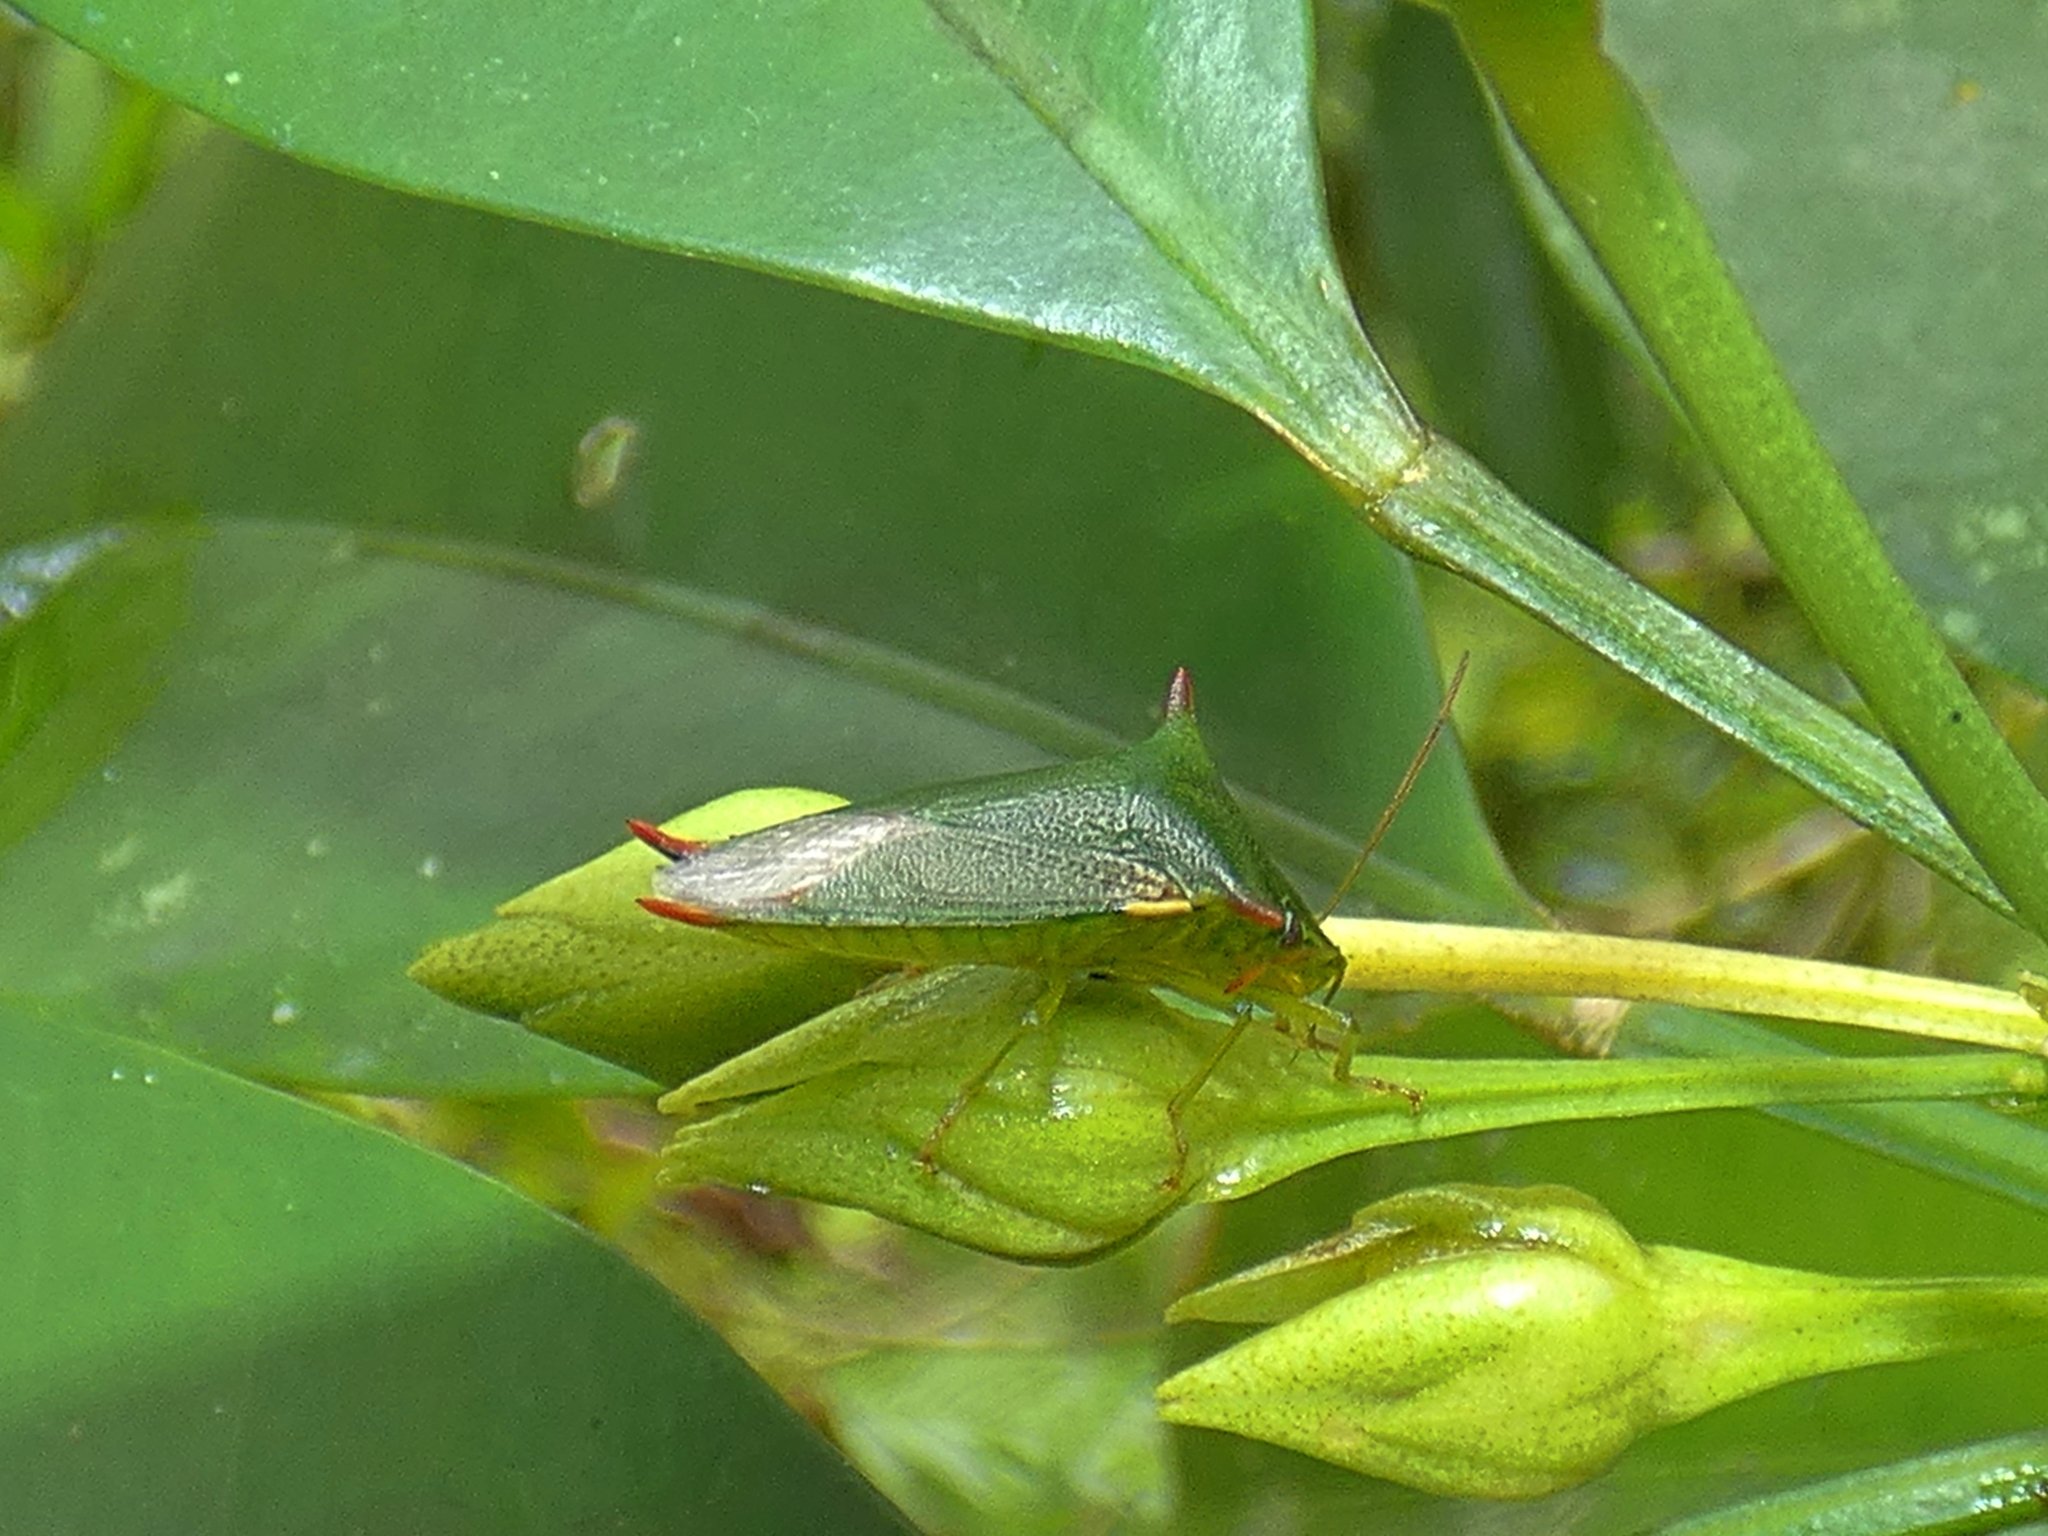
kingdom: Animalia
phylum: Arthropoda
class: Insecta
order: Hemiptera
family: Pentatomidae
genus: Vitellus
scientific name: Vitellus
